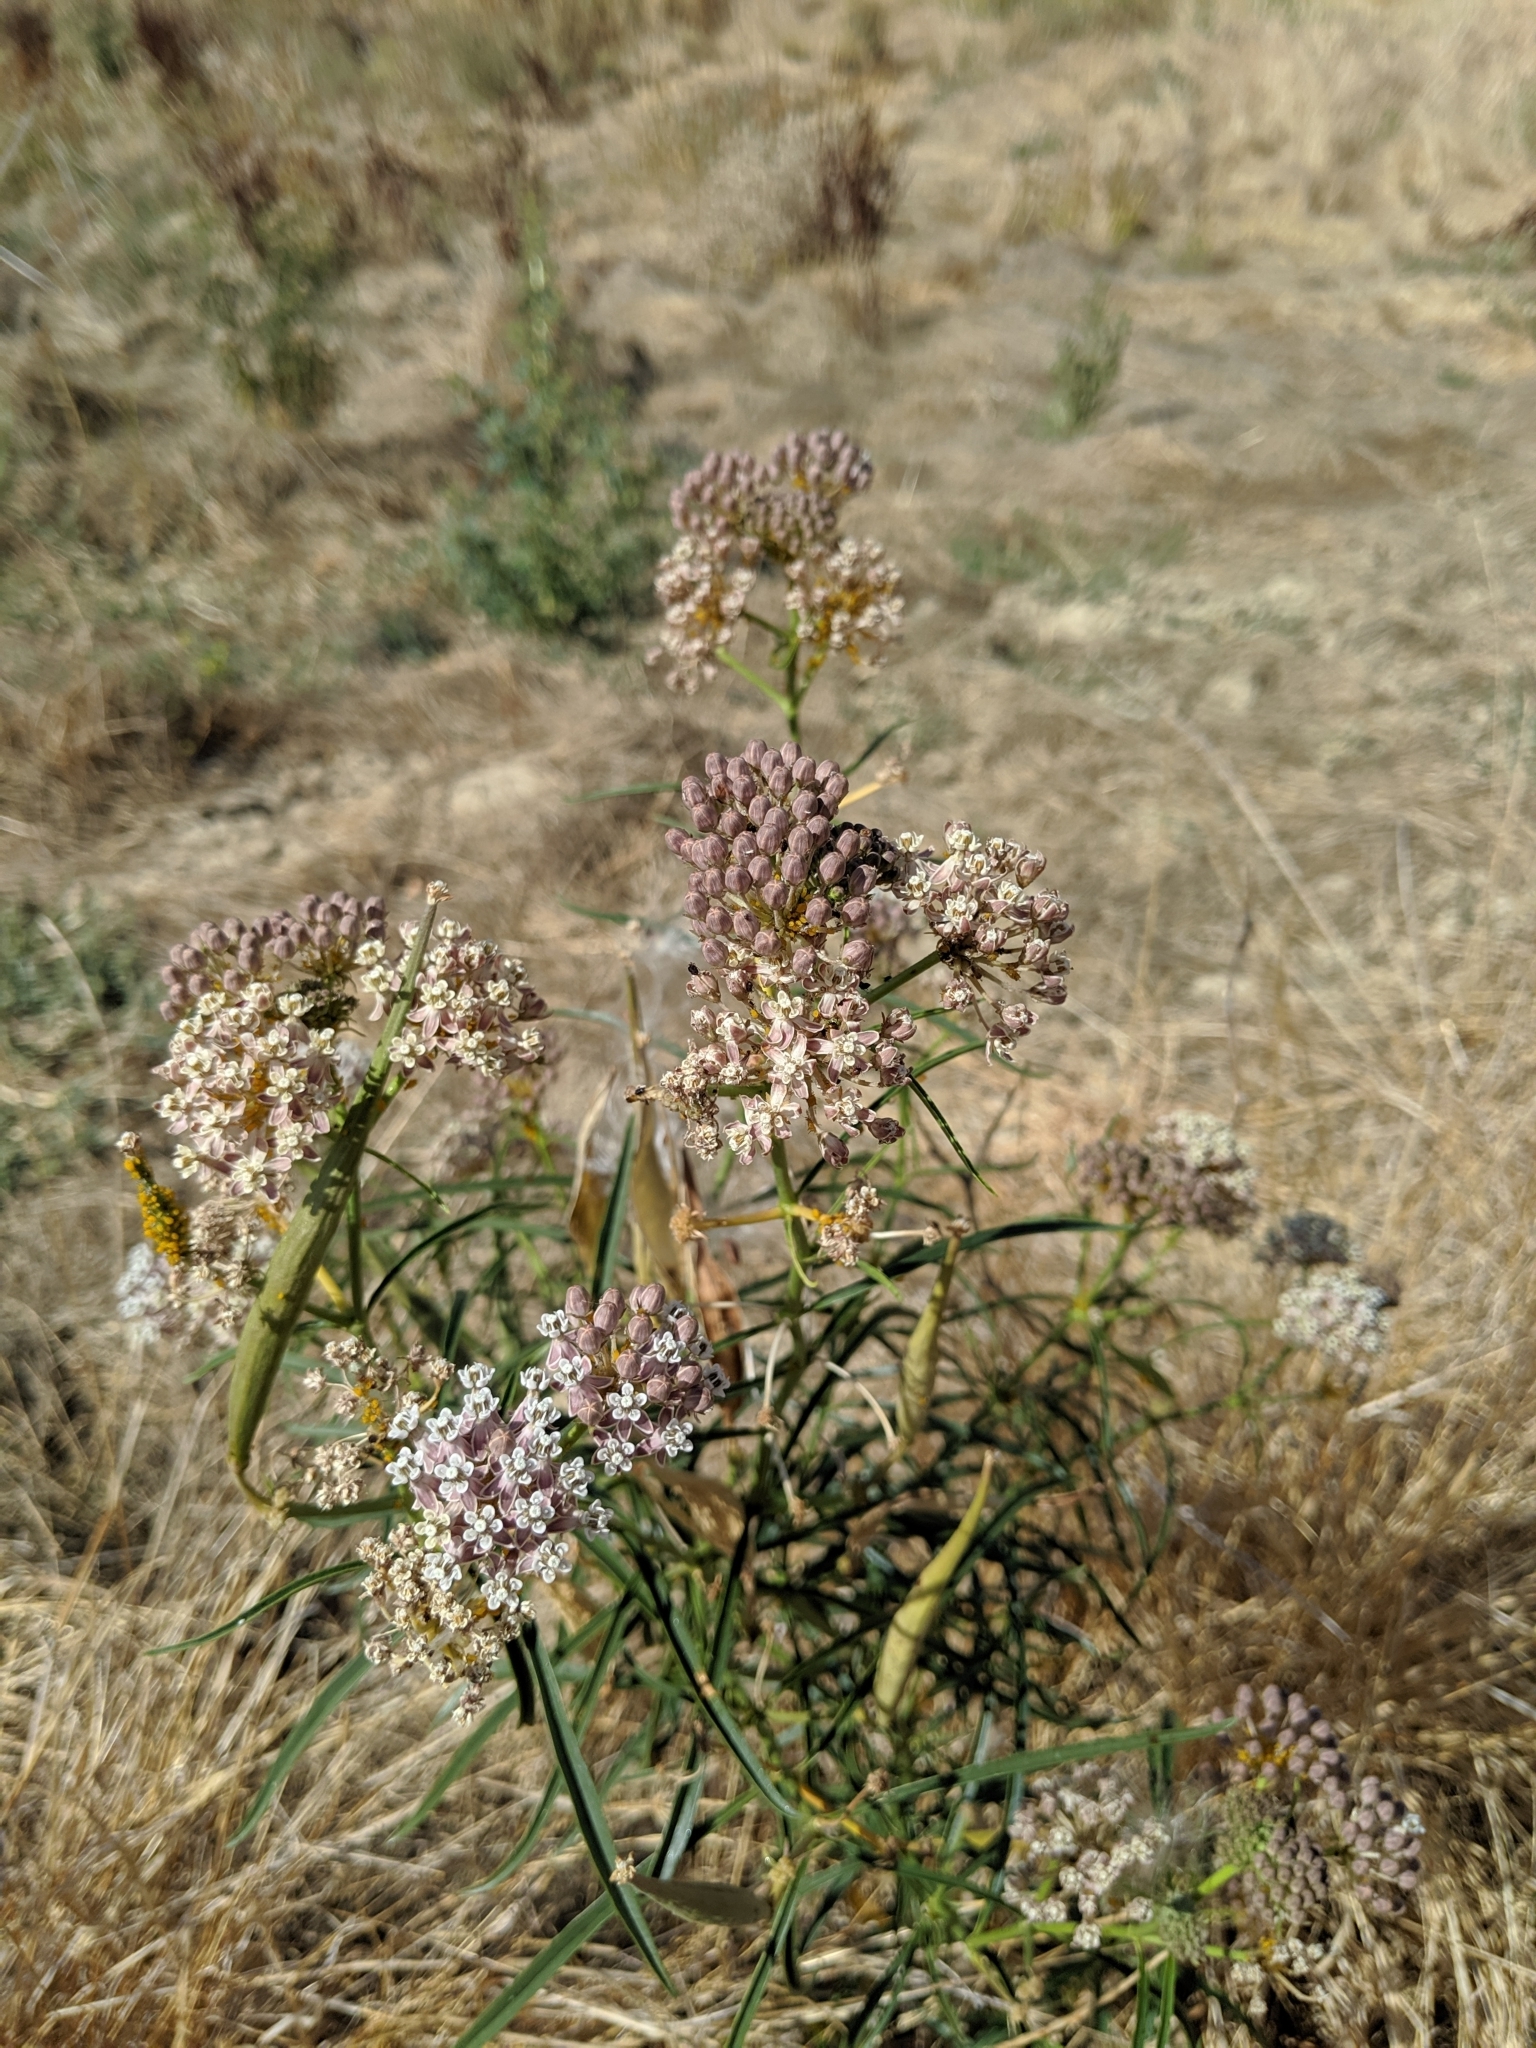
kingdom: Plantae
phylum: Tracheophyta
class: Magnoliopsida
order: Gentianales
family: Apocynaceae
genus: Asclepias
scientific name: Asclepias fascicularis
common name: Mexican milkweed
